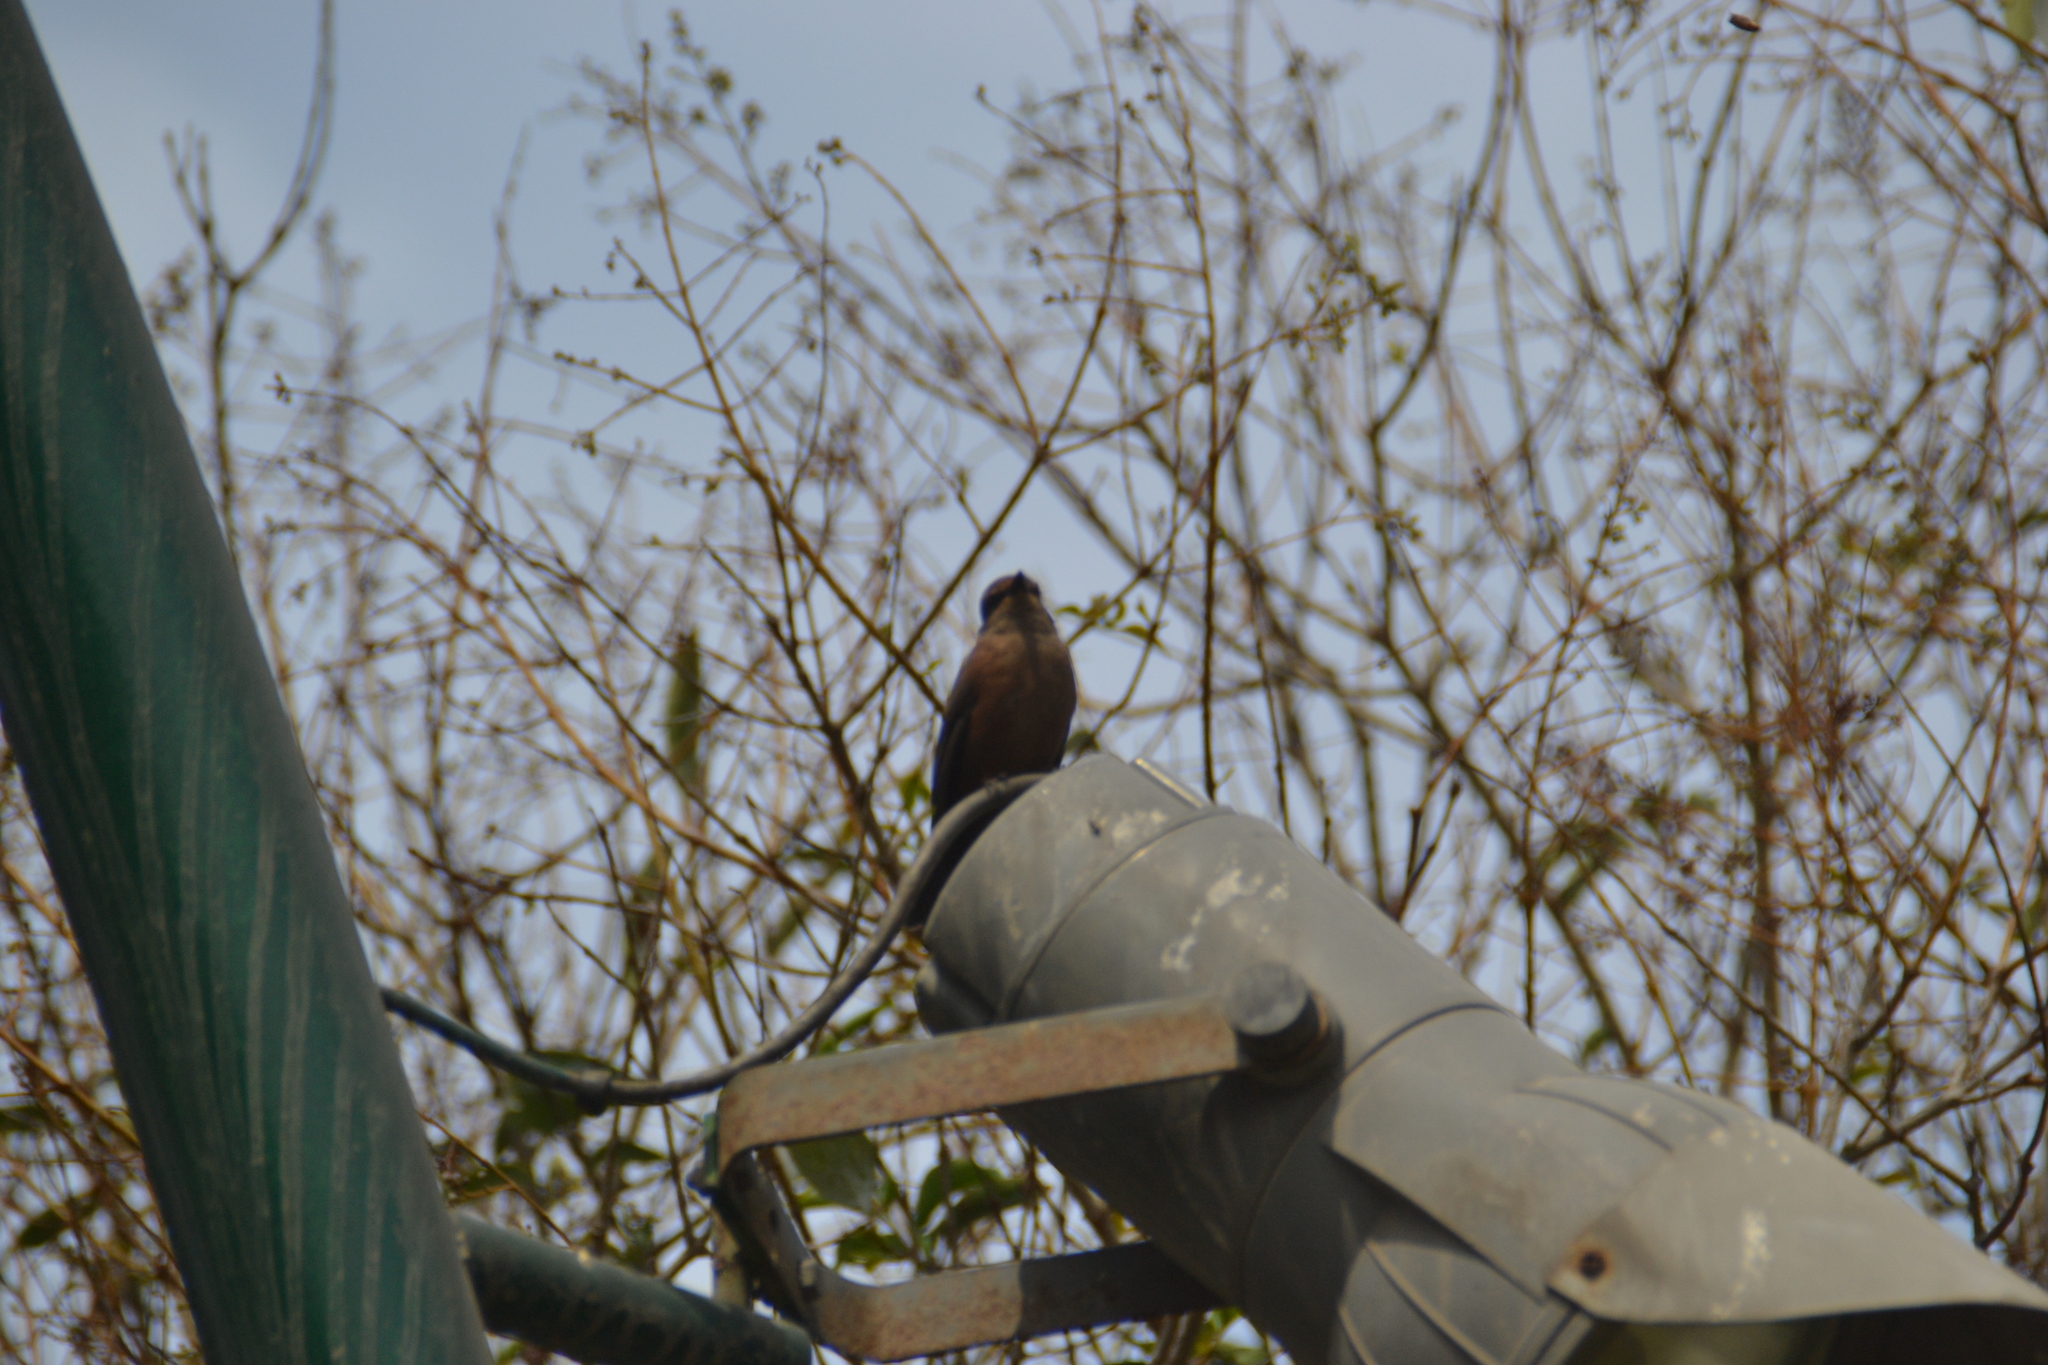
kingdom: Animalia
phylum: Chordata
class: Aves
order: Passeriformes
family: Tyrannidae
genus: Pyrocephalus
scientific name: Pyrocephalus rubinus
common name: Vermilion flycatcher
